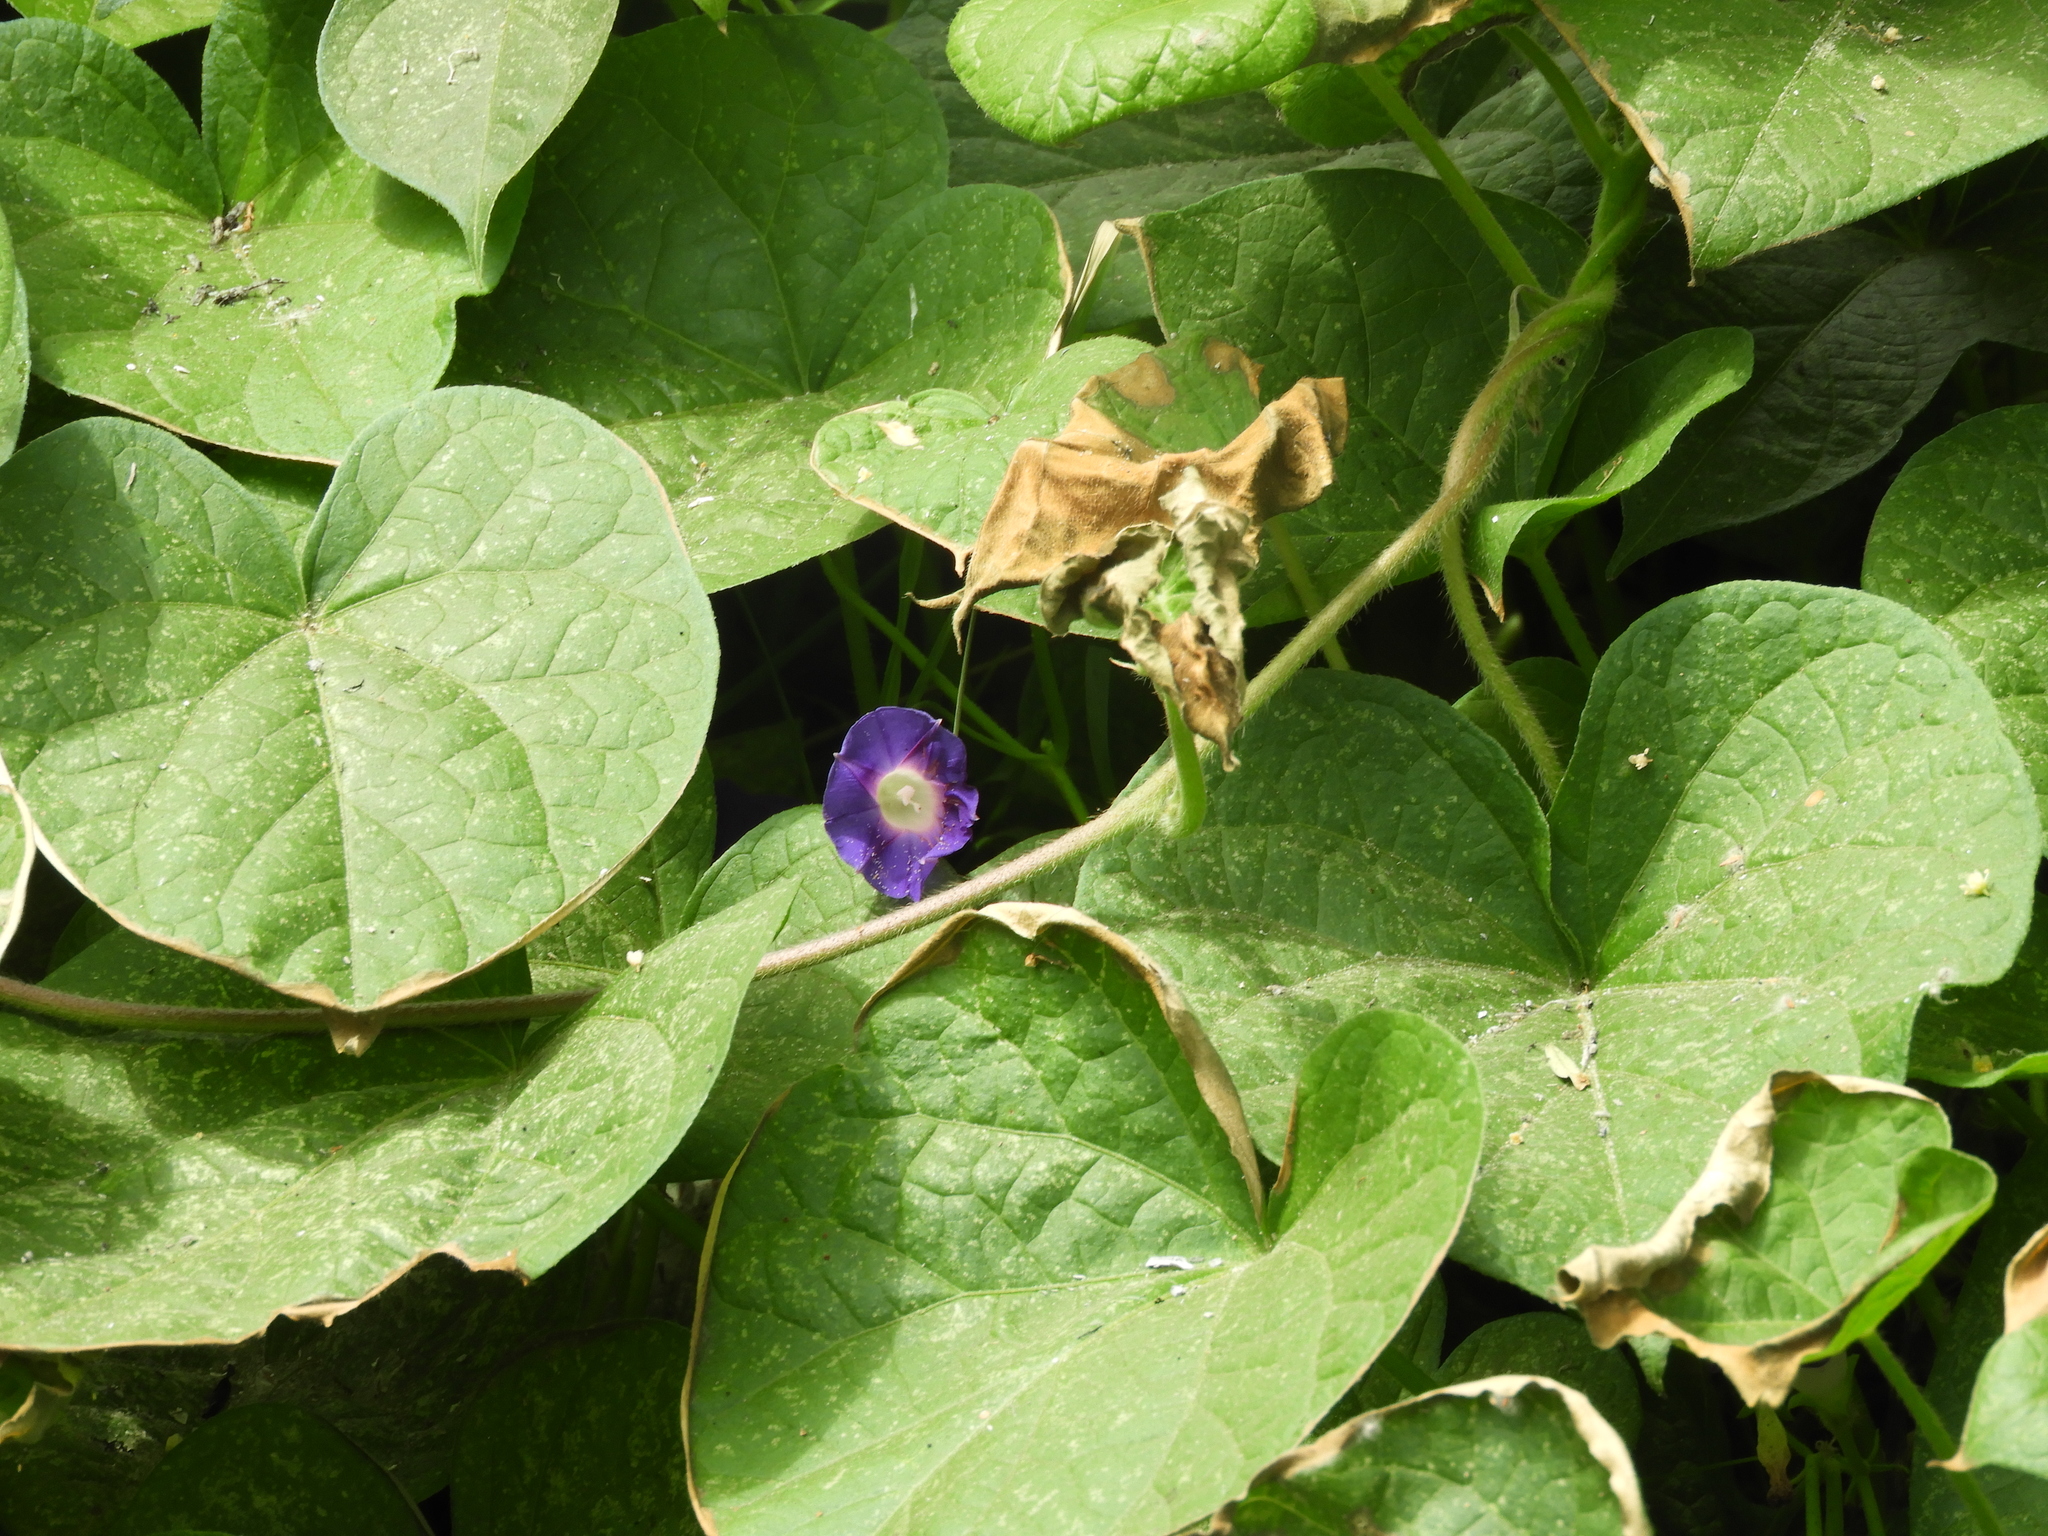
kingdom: Plantae
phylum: Tracheophyta
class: Magnoliopsida
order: Solanales
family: Convolvulaceae
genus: Ipomoea
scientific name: Ipomoea purpurea
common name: Common morning-glory
